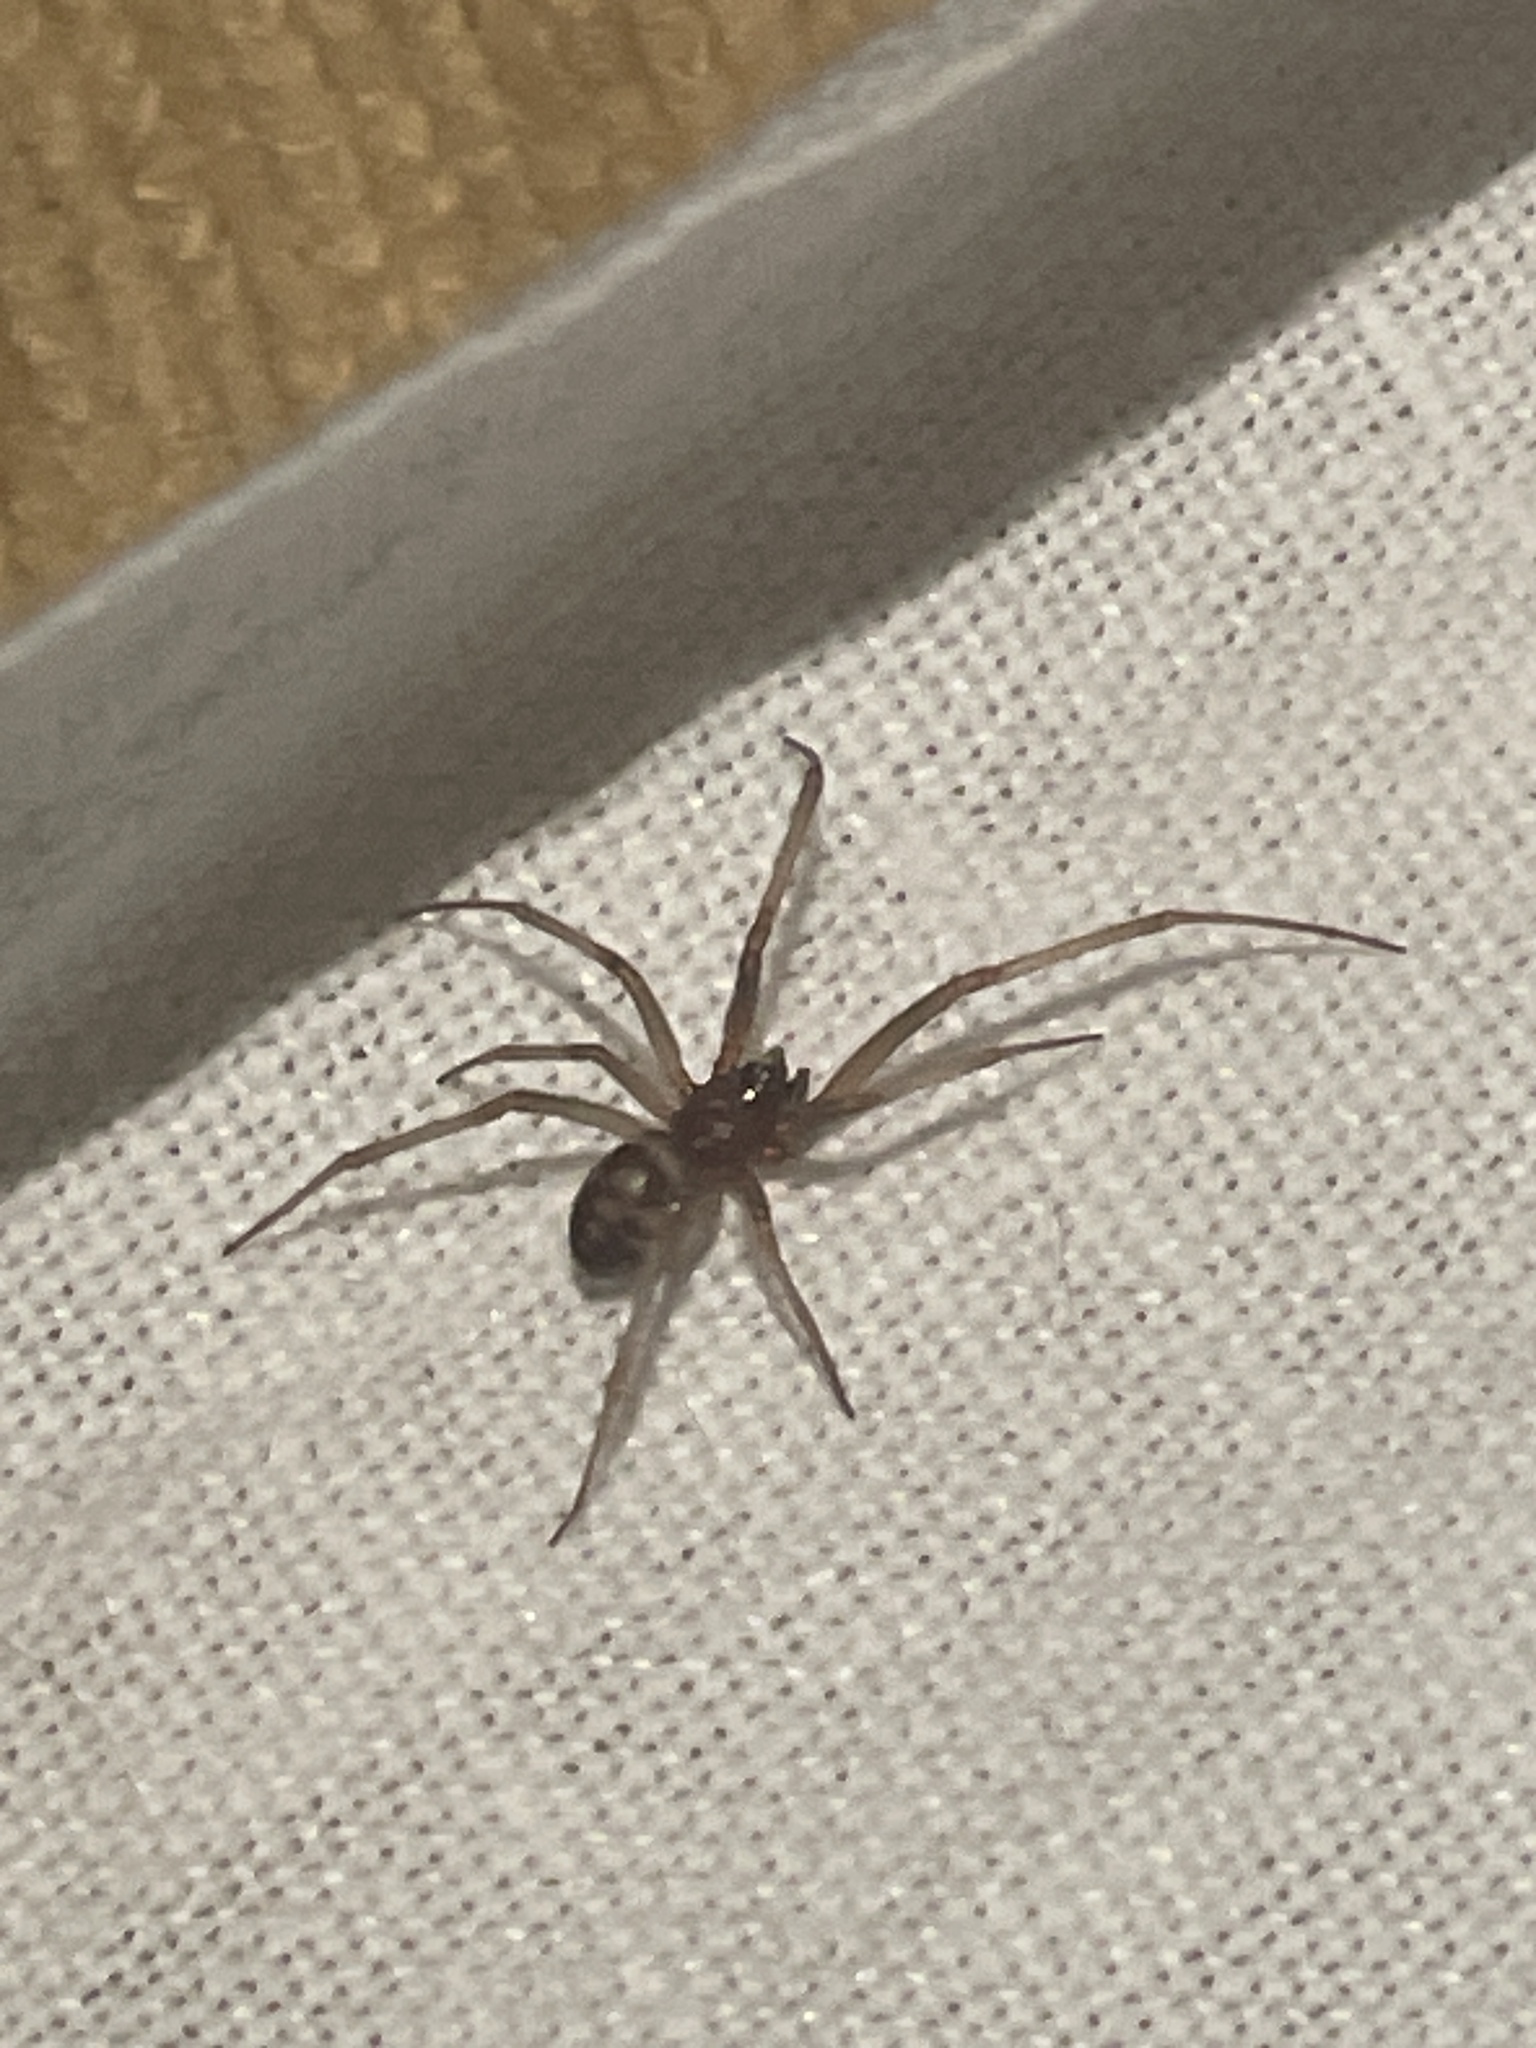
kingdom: Animalia
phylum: Arthropoda
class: Arachnida
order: Araneae
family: Theridiidae
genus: Steatoda
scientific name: Steatoda grossa
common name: False black widow
